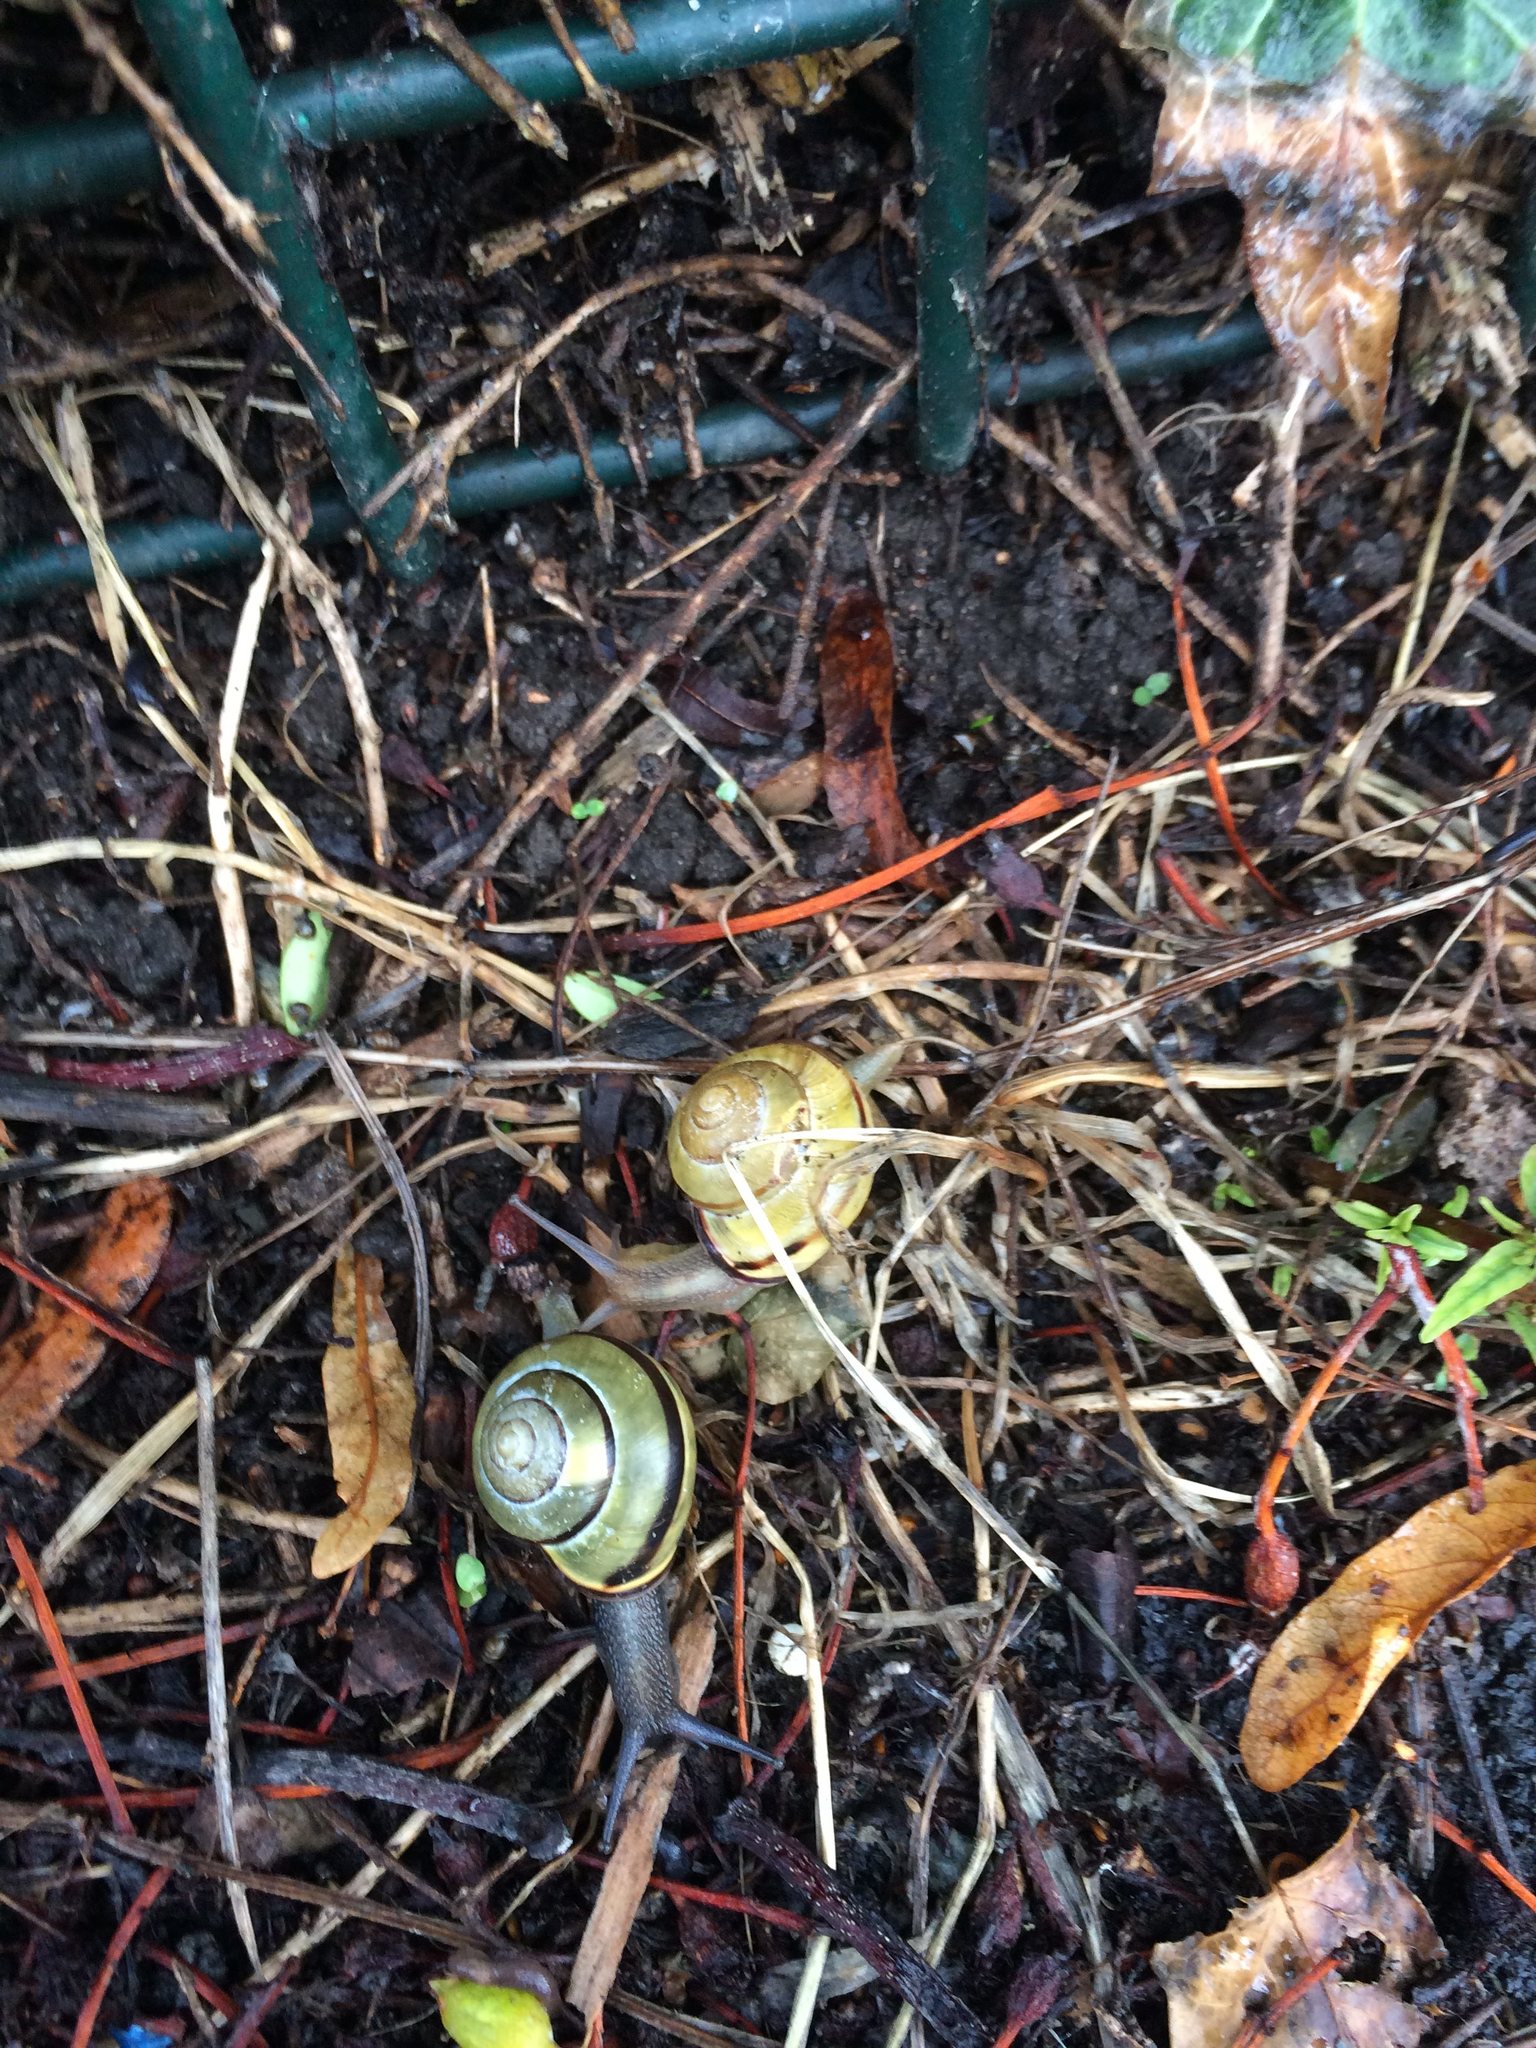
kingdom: Animalia
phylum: Mollusca
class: Gastropoda
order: Stylommatophora
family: Helicidae
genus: Cepaea
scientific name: Cepaea nemoralis
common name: Grovesnail
